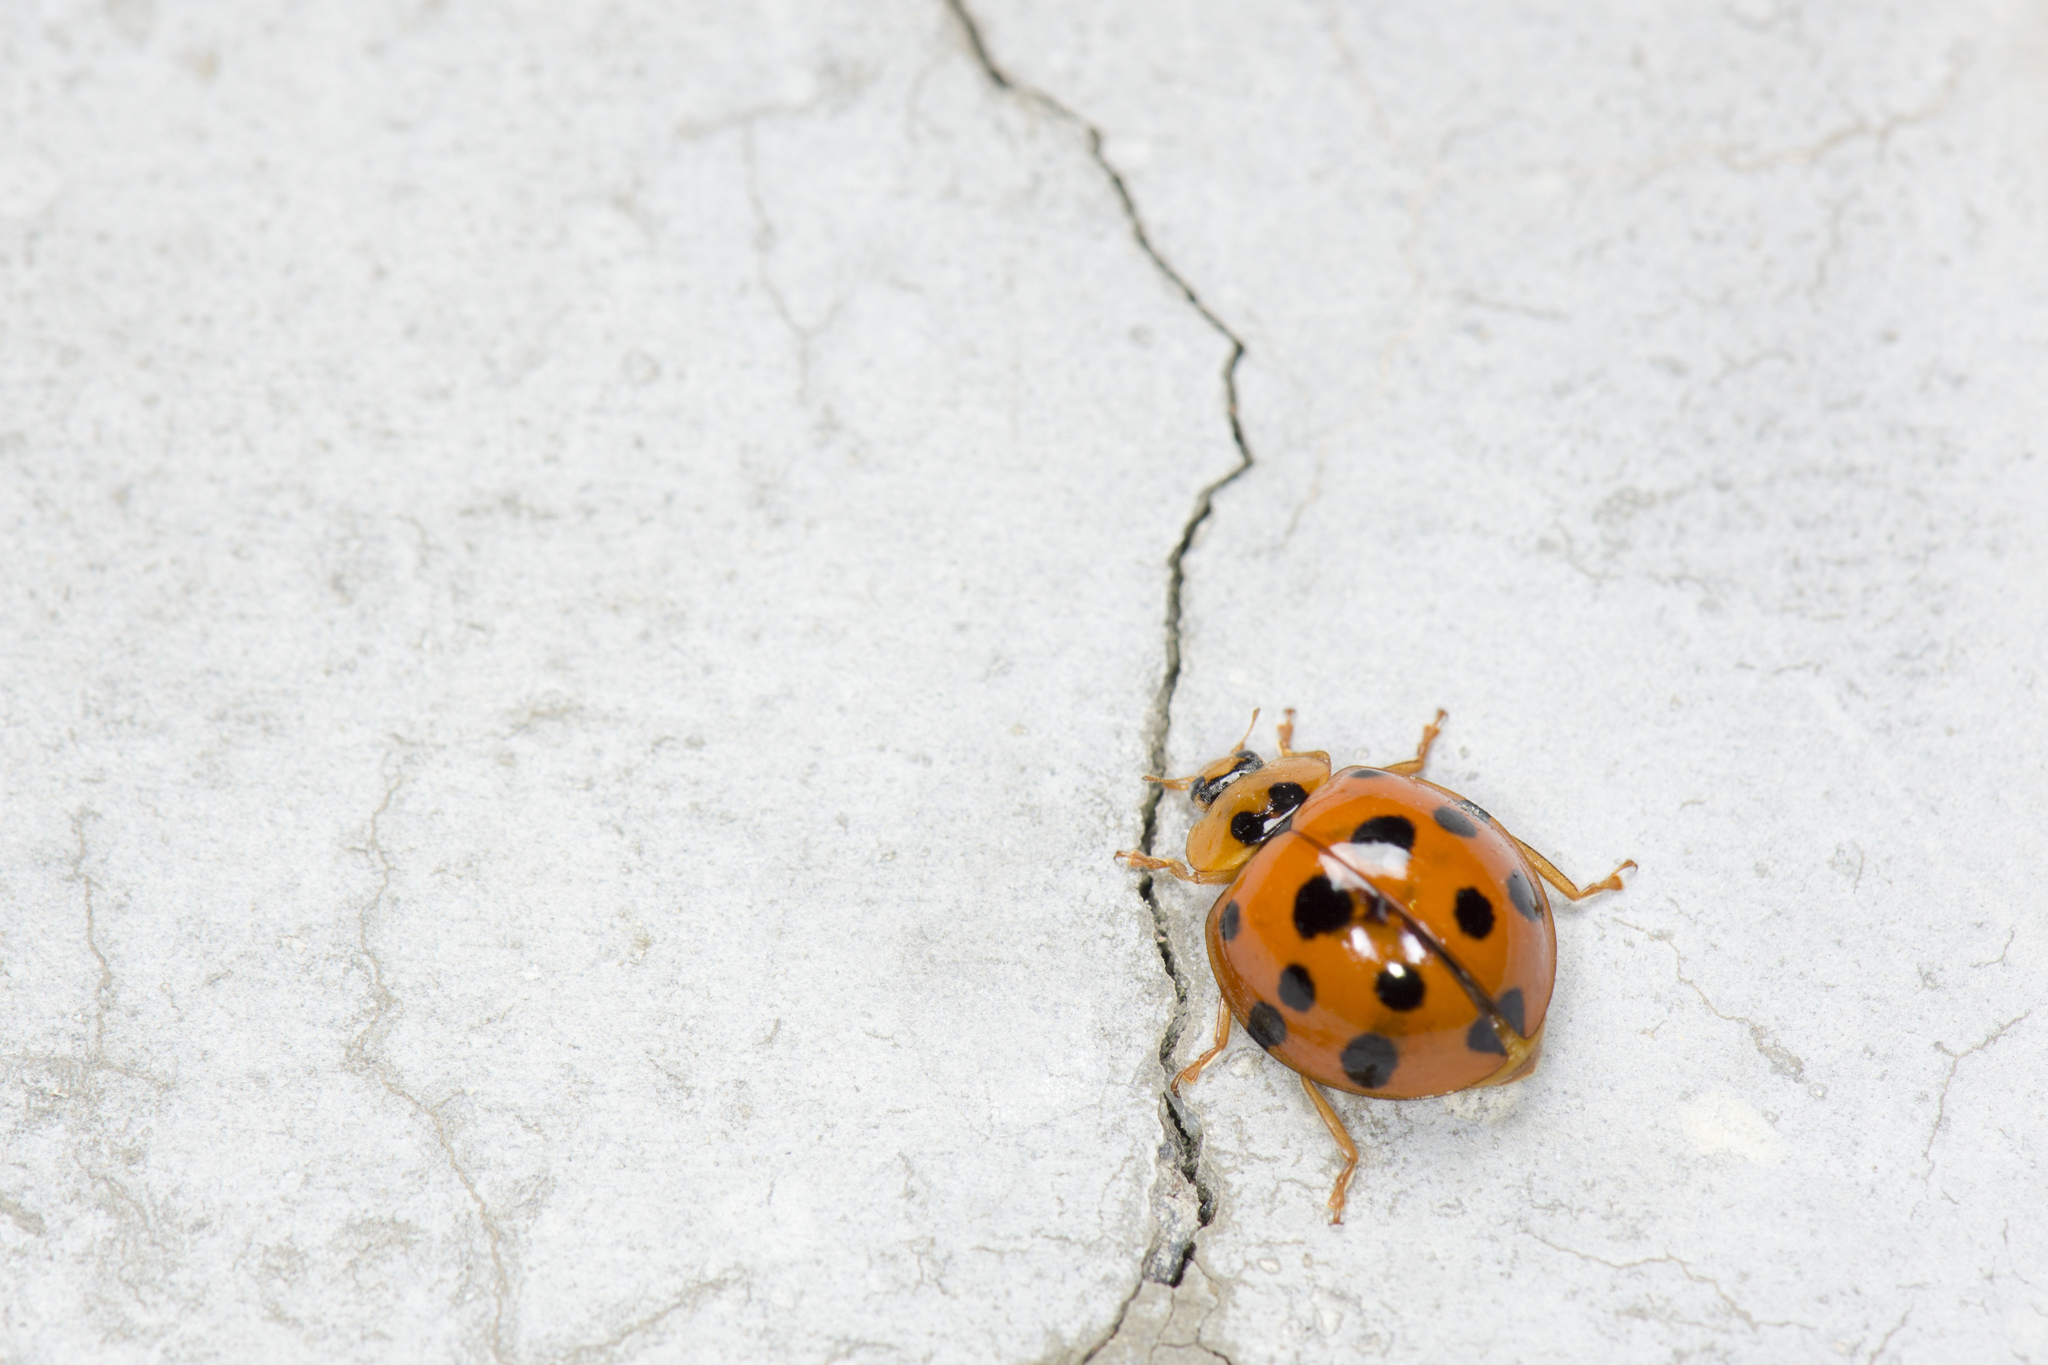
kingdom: Animalia
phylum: Arthropoda
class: Insecta
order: Coleoptera
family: Coccinellidae
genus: Harmonia
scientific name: Harmonia dimidiata
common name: Ladybird beetle
